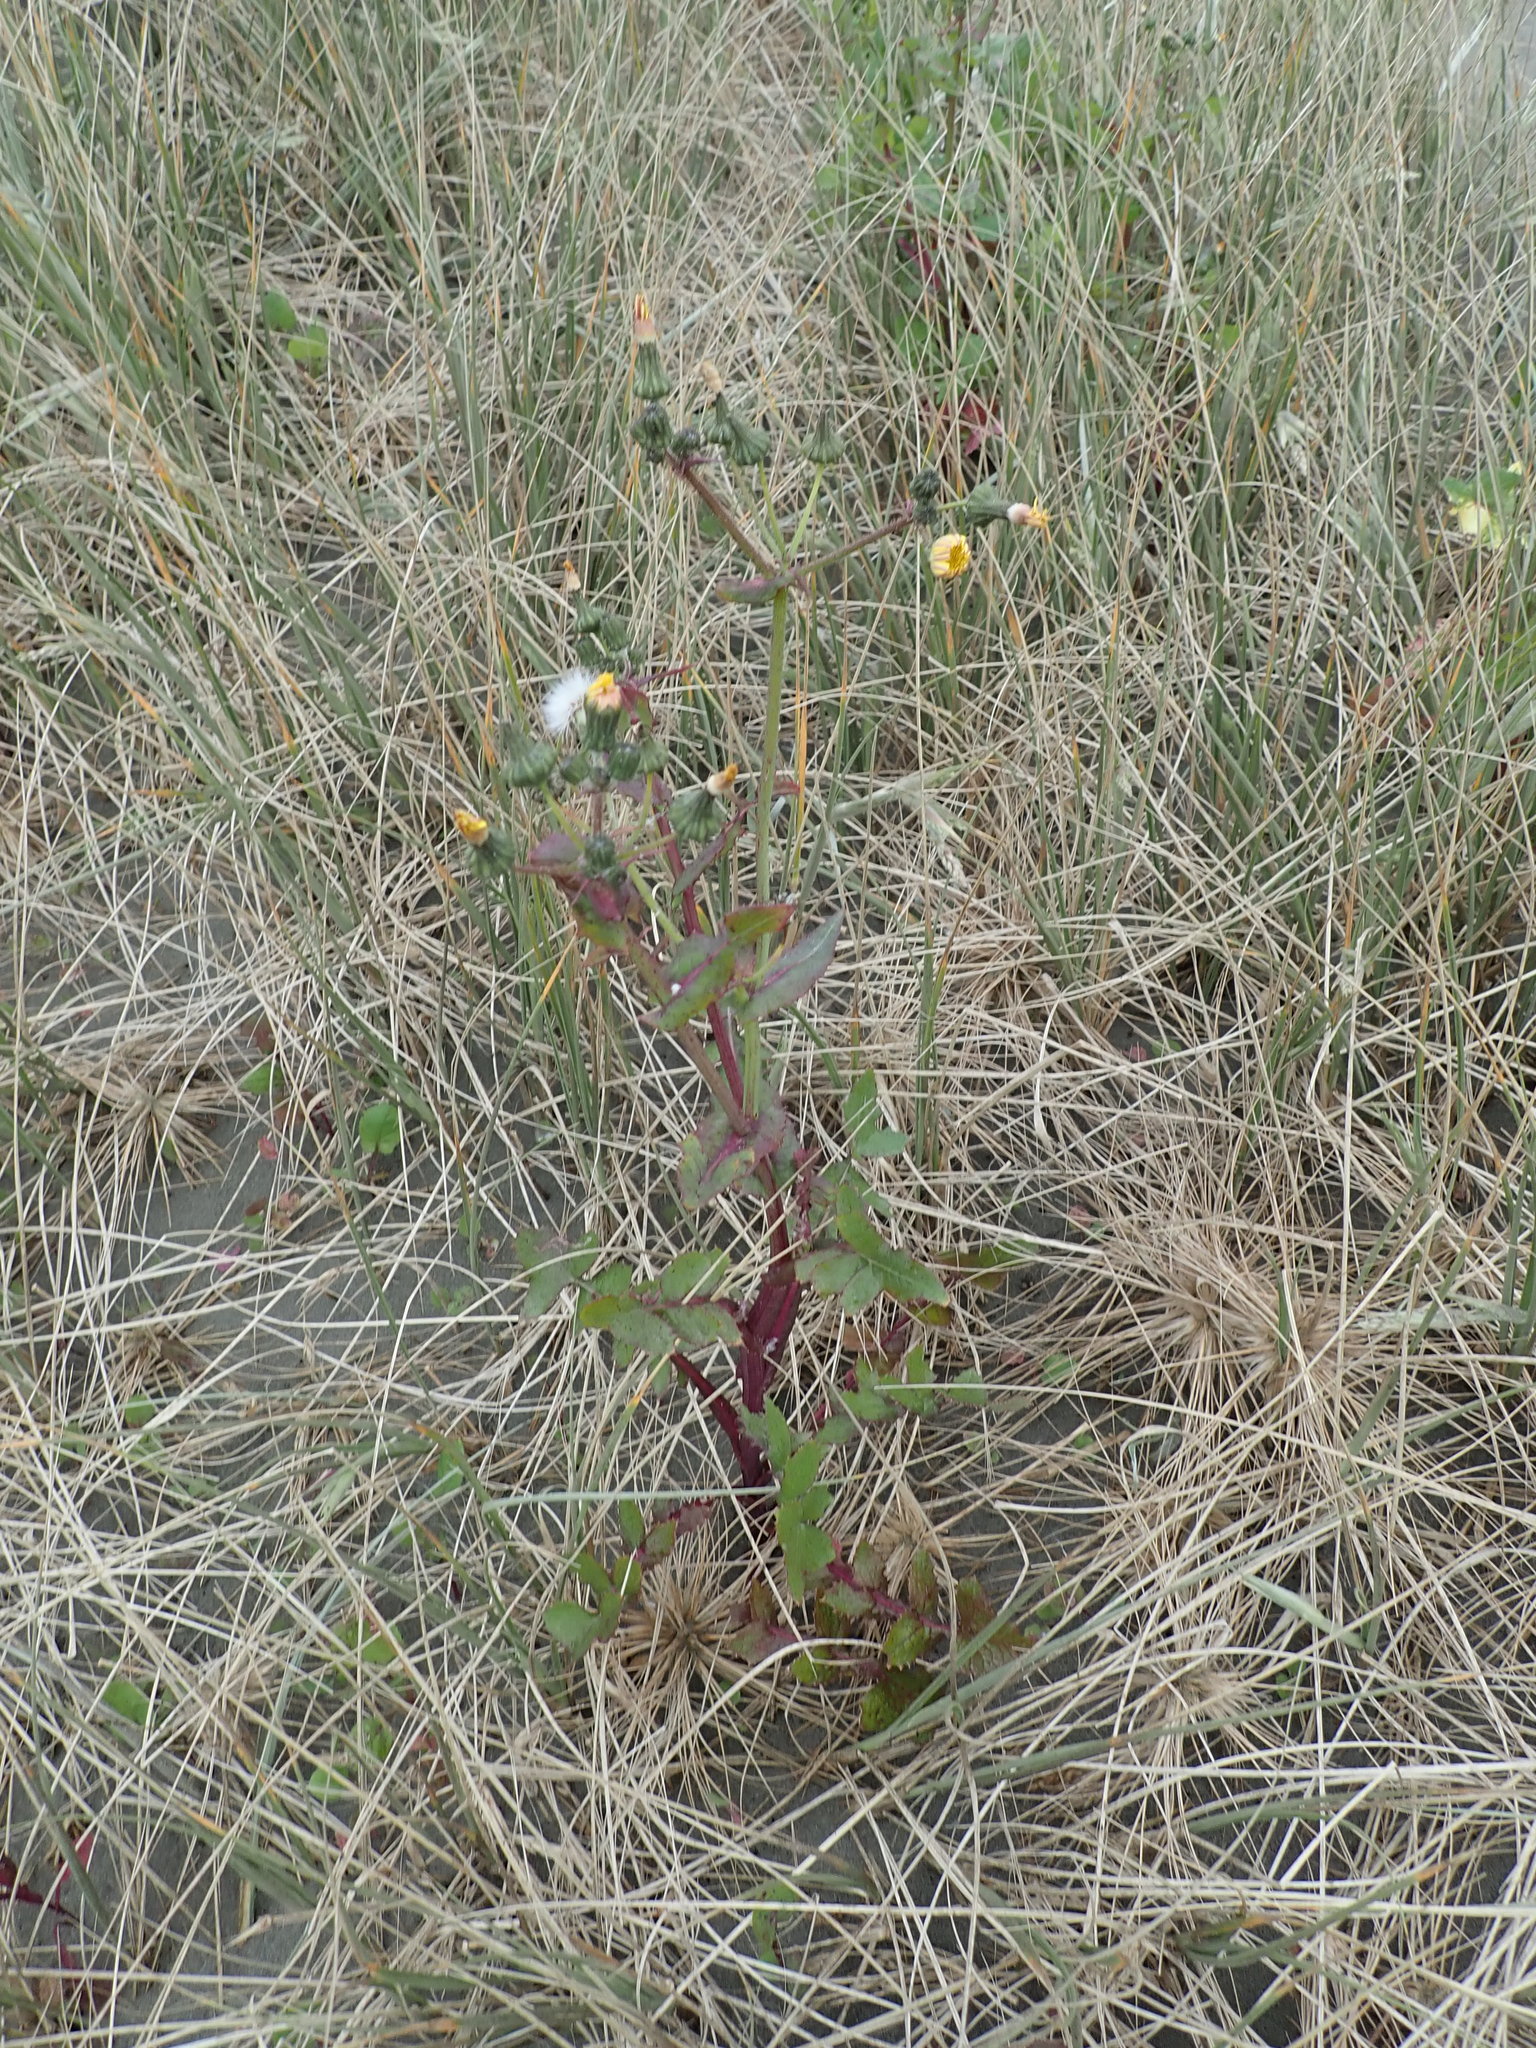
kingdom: Plantae
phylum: Tracheophyta
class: Magnoliopsida
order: Asterales
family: Asteraceae
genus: Sonchus
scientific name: Sonchus oleraceus
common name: Common sowthistle
